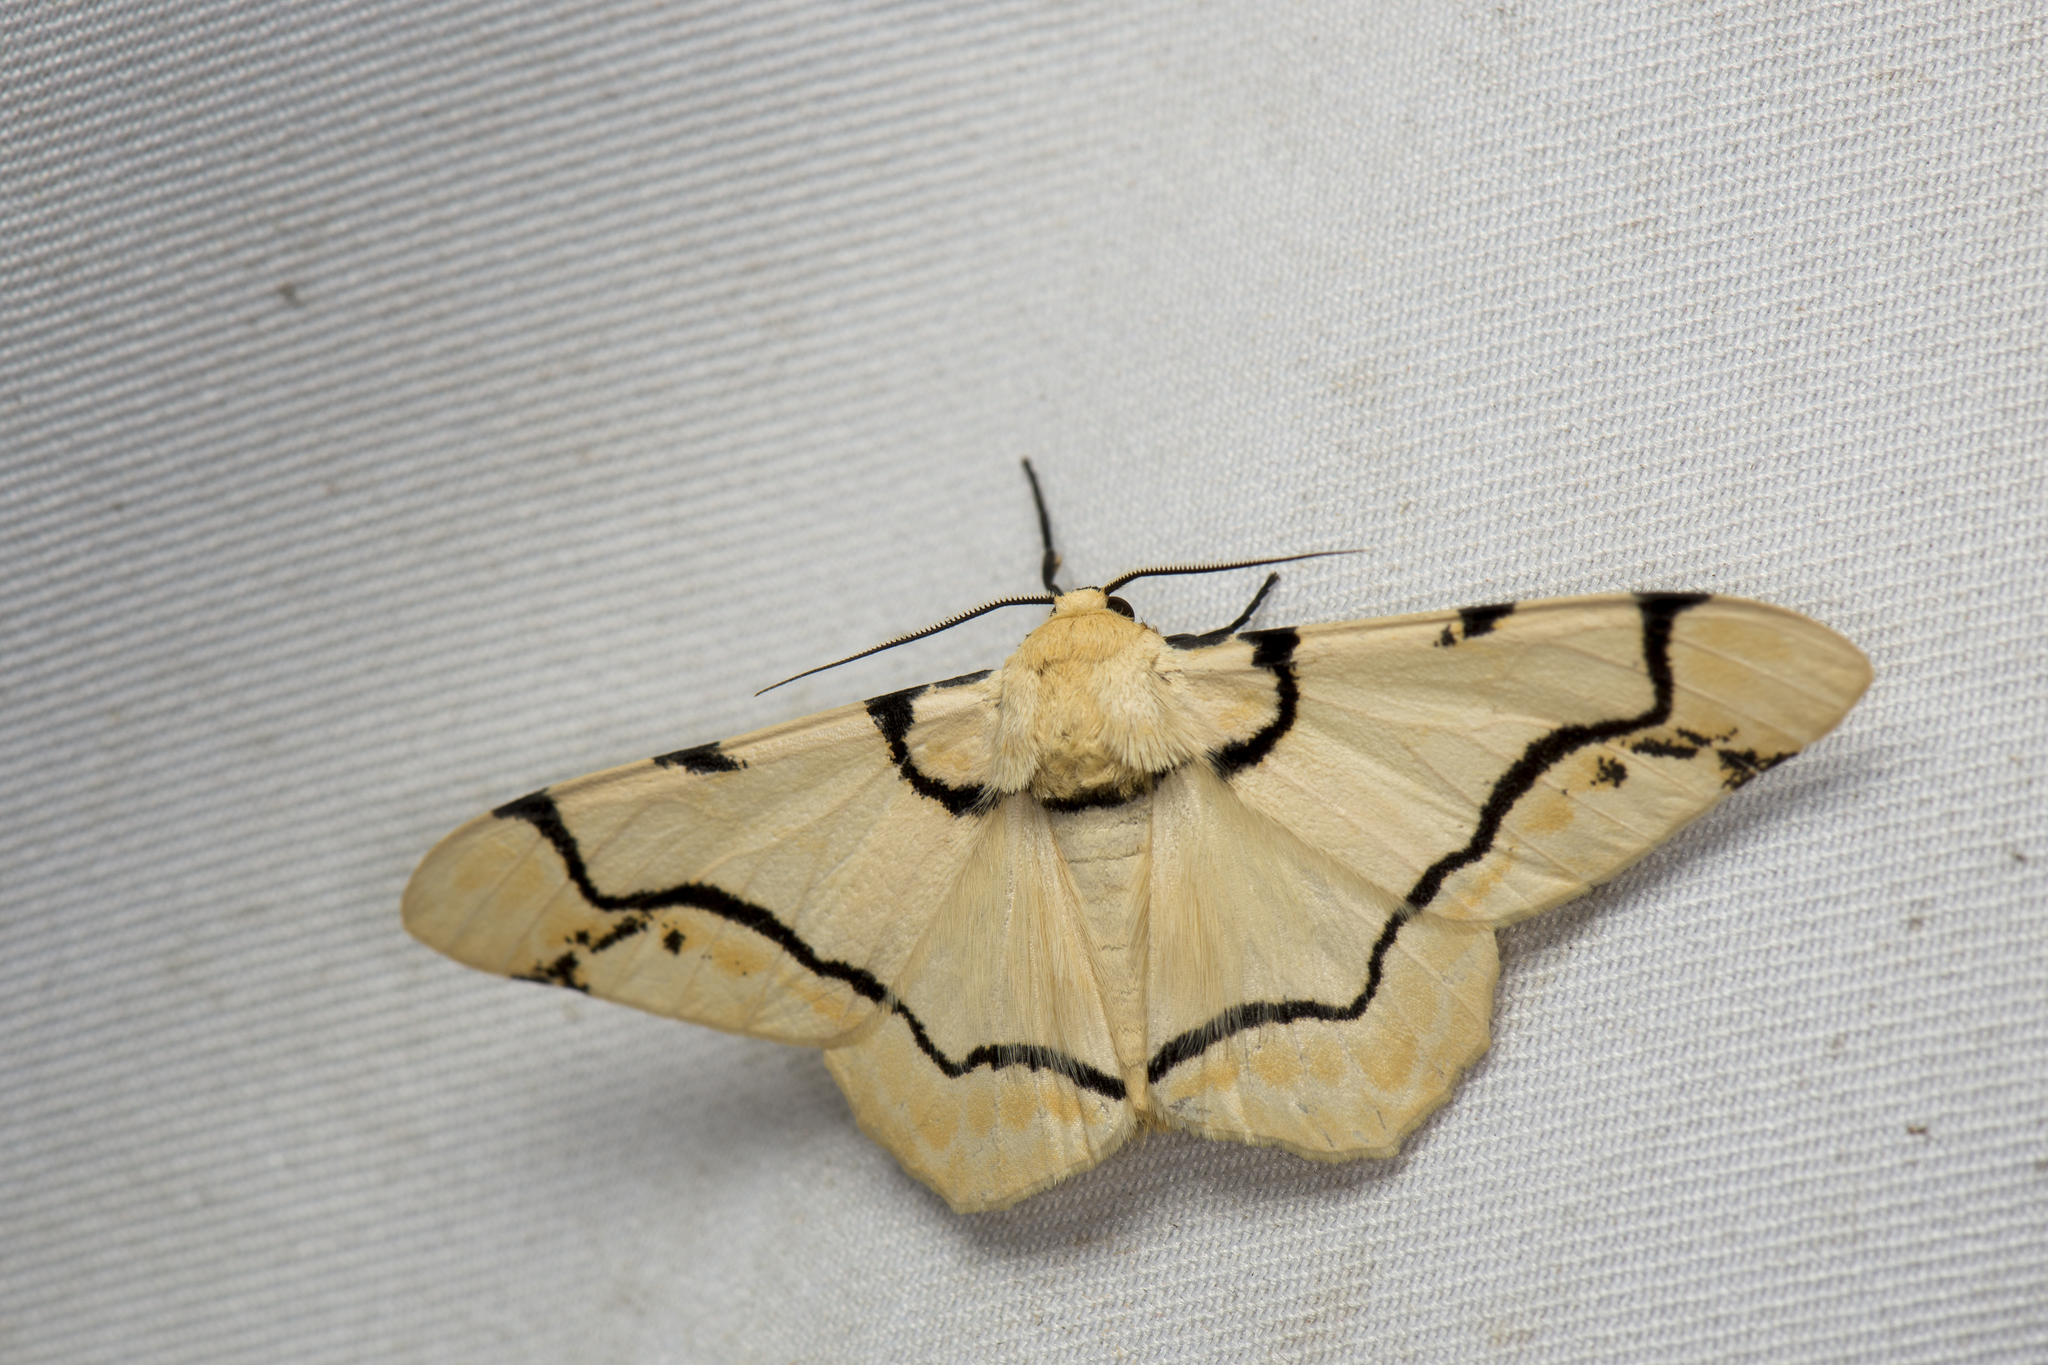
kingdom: Animalia
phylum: Arthropoda
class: Insecta
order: Lepidoptera
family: Geometridae
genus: Biston
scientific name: Biston perclara
